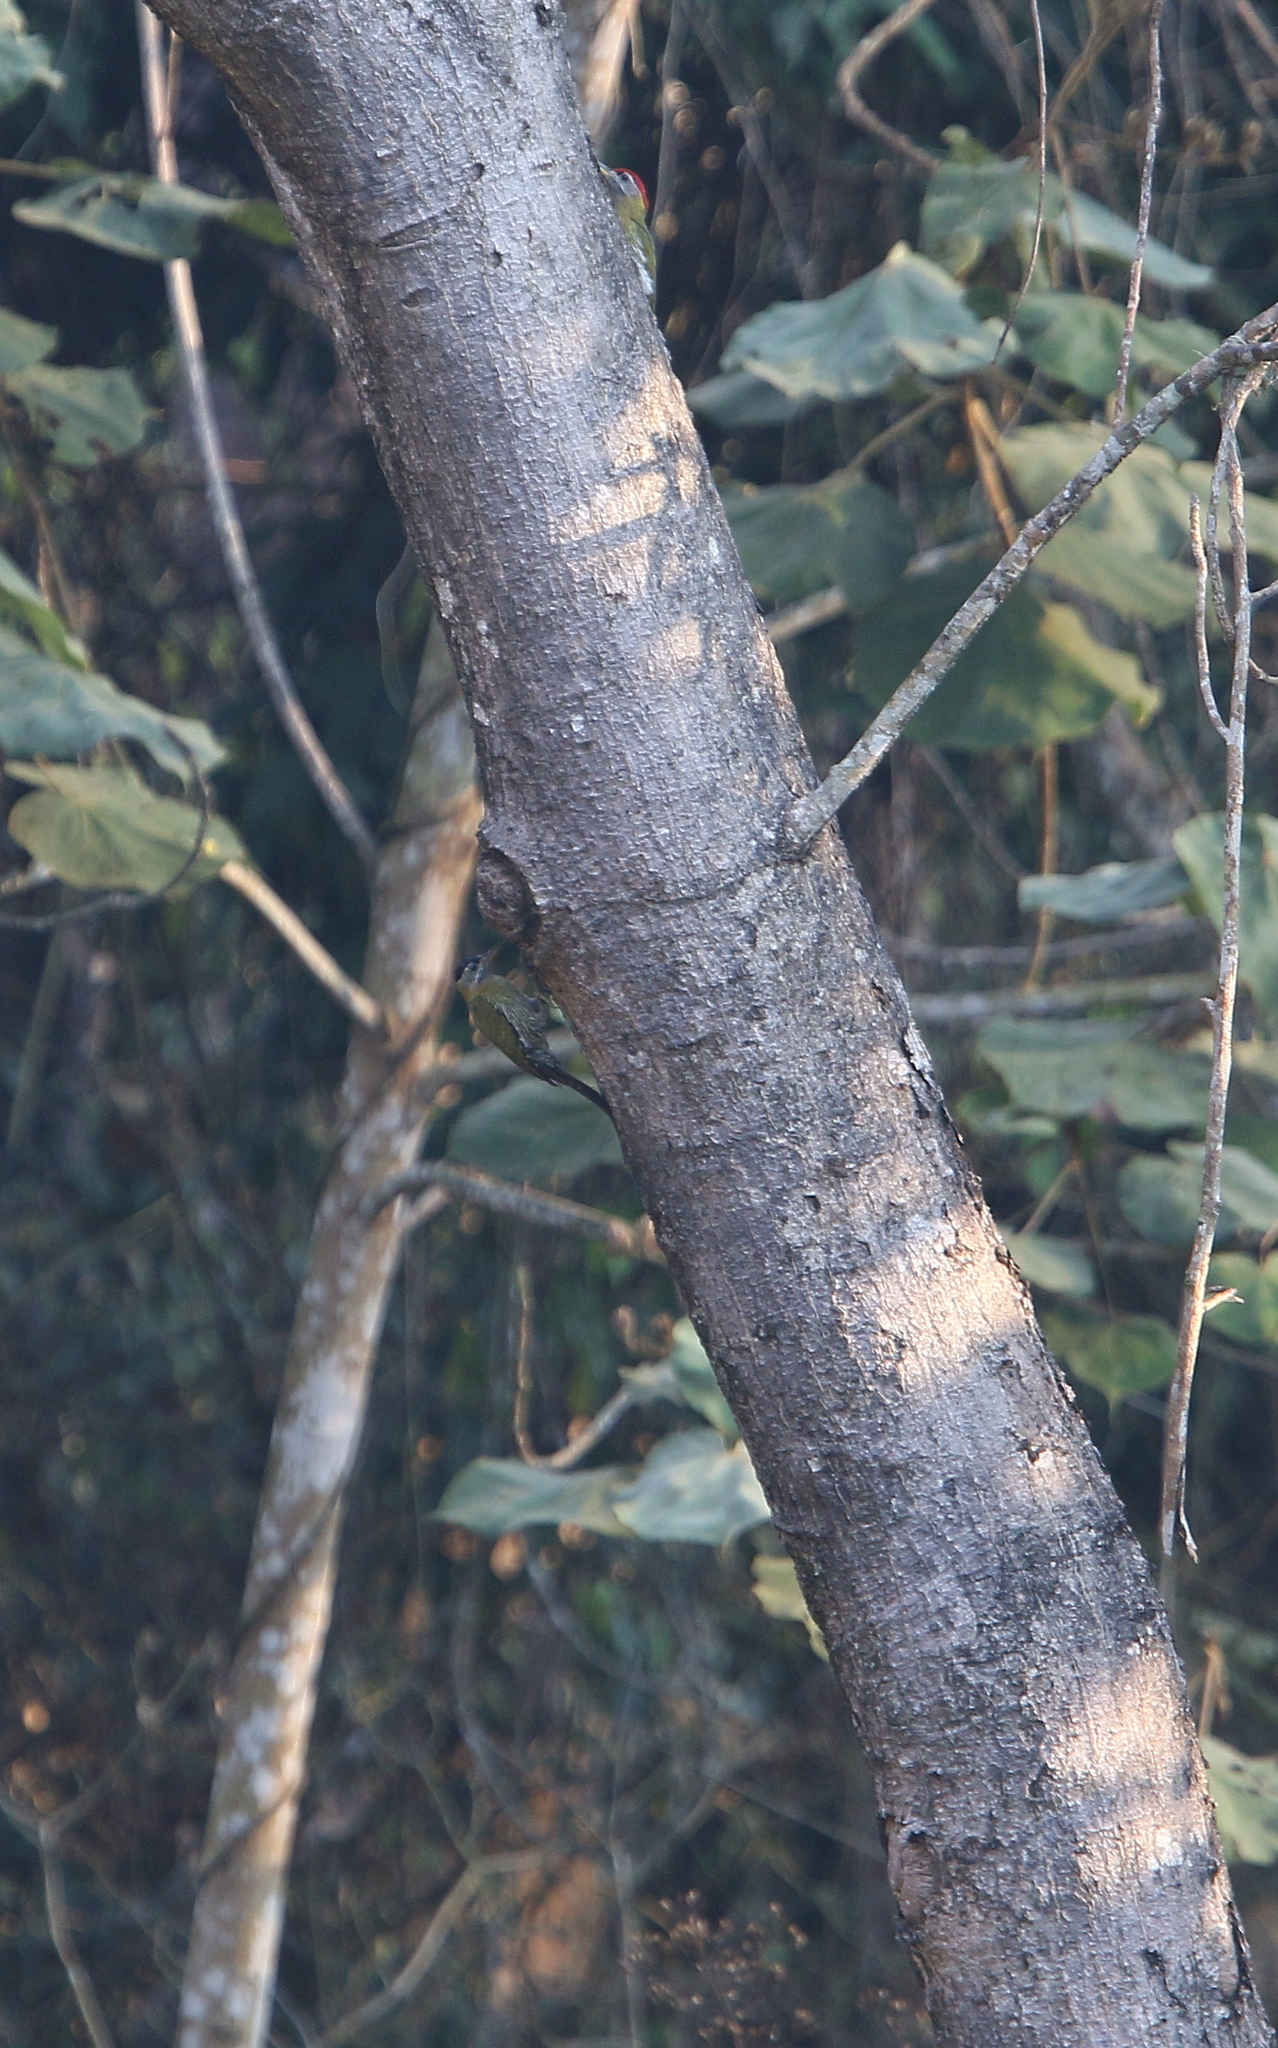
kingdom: Animalia
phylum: Chordata
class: Aves
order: Piciformes
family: Picidae
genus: Picus
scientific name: Picus viridanus
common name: Streak-breasted woodpecker
